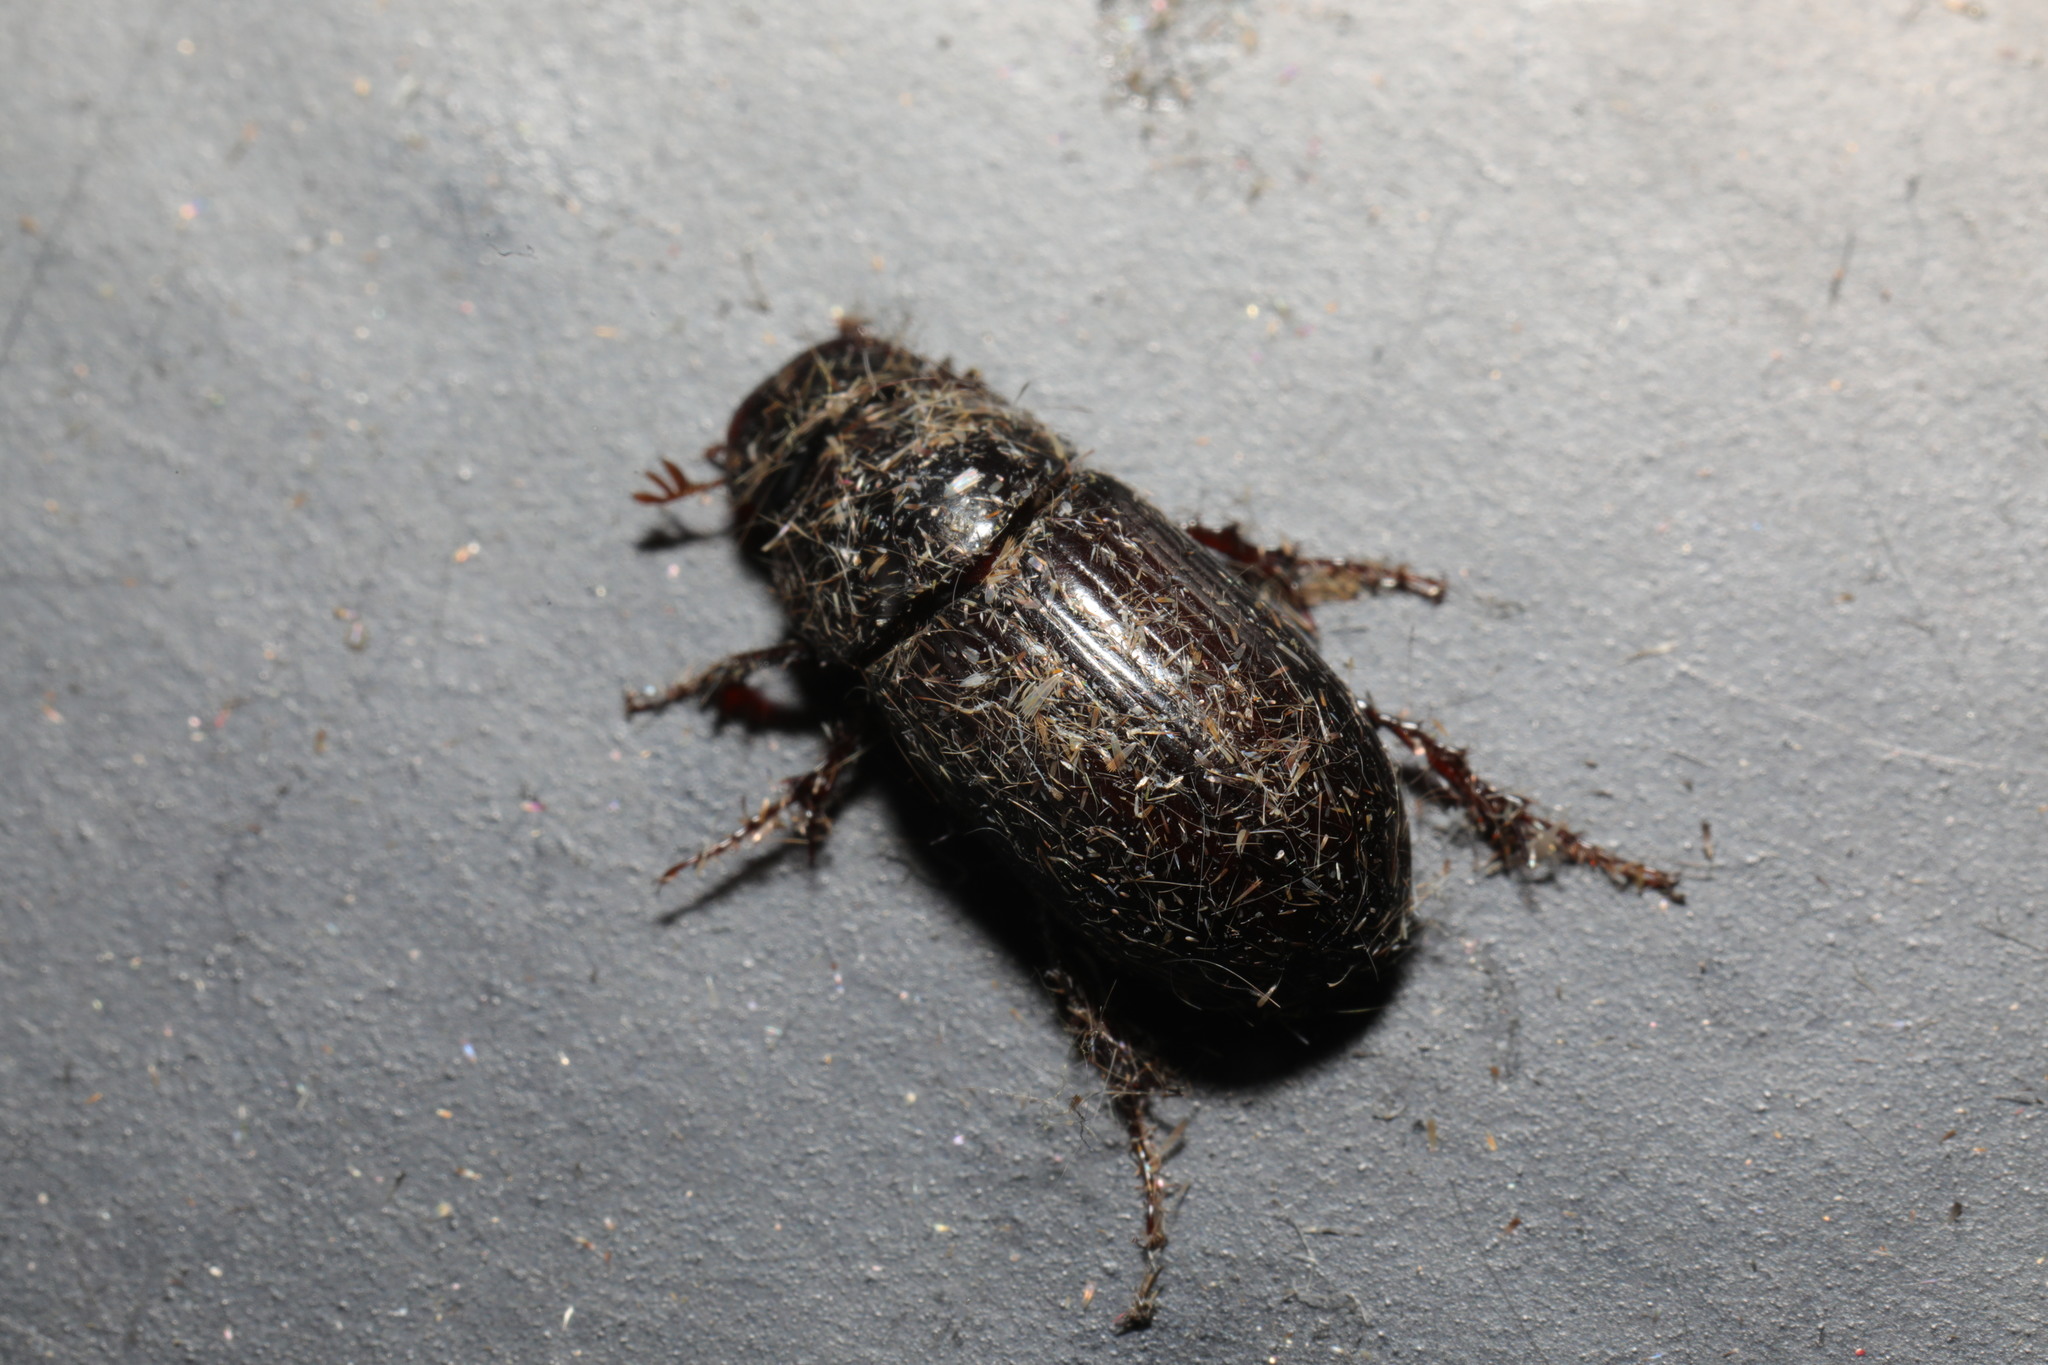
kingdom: Animalia
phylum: Arthropoda
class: Insecta
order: Coleoptera
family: Scarabaeidae
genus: Acrossus
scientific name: Acrossus rufipes
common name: Night-flying dung beetle
